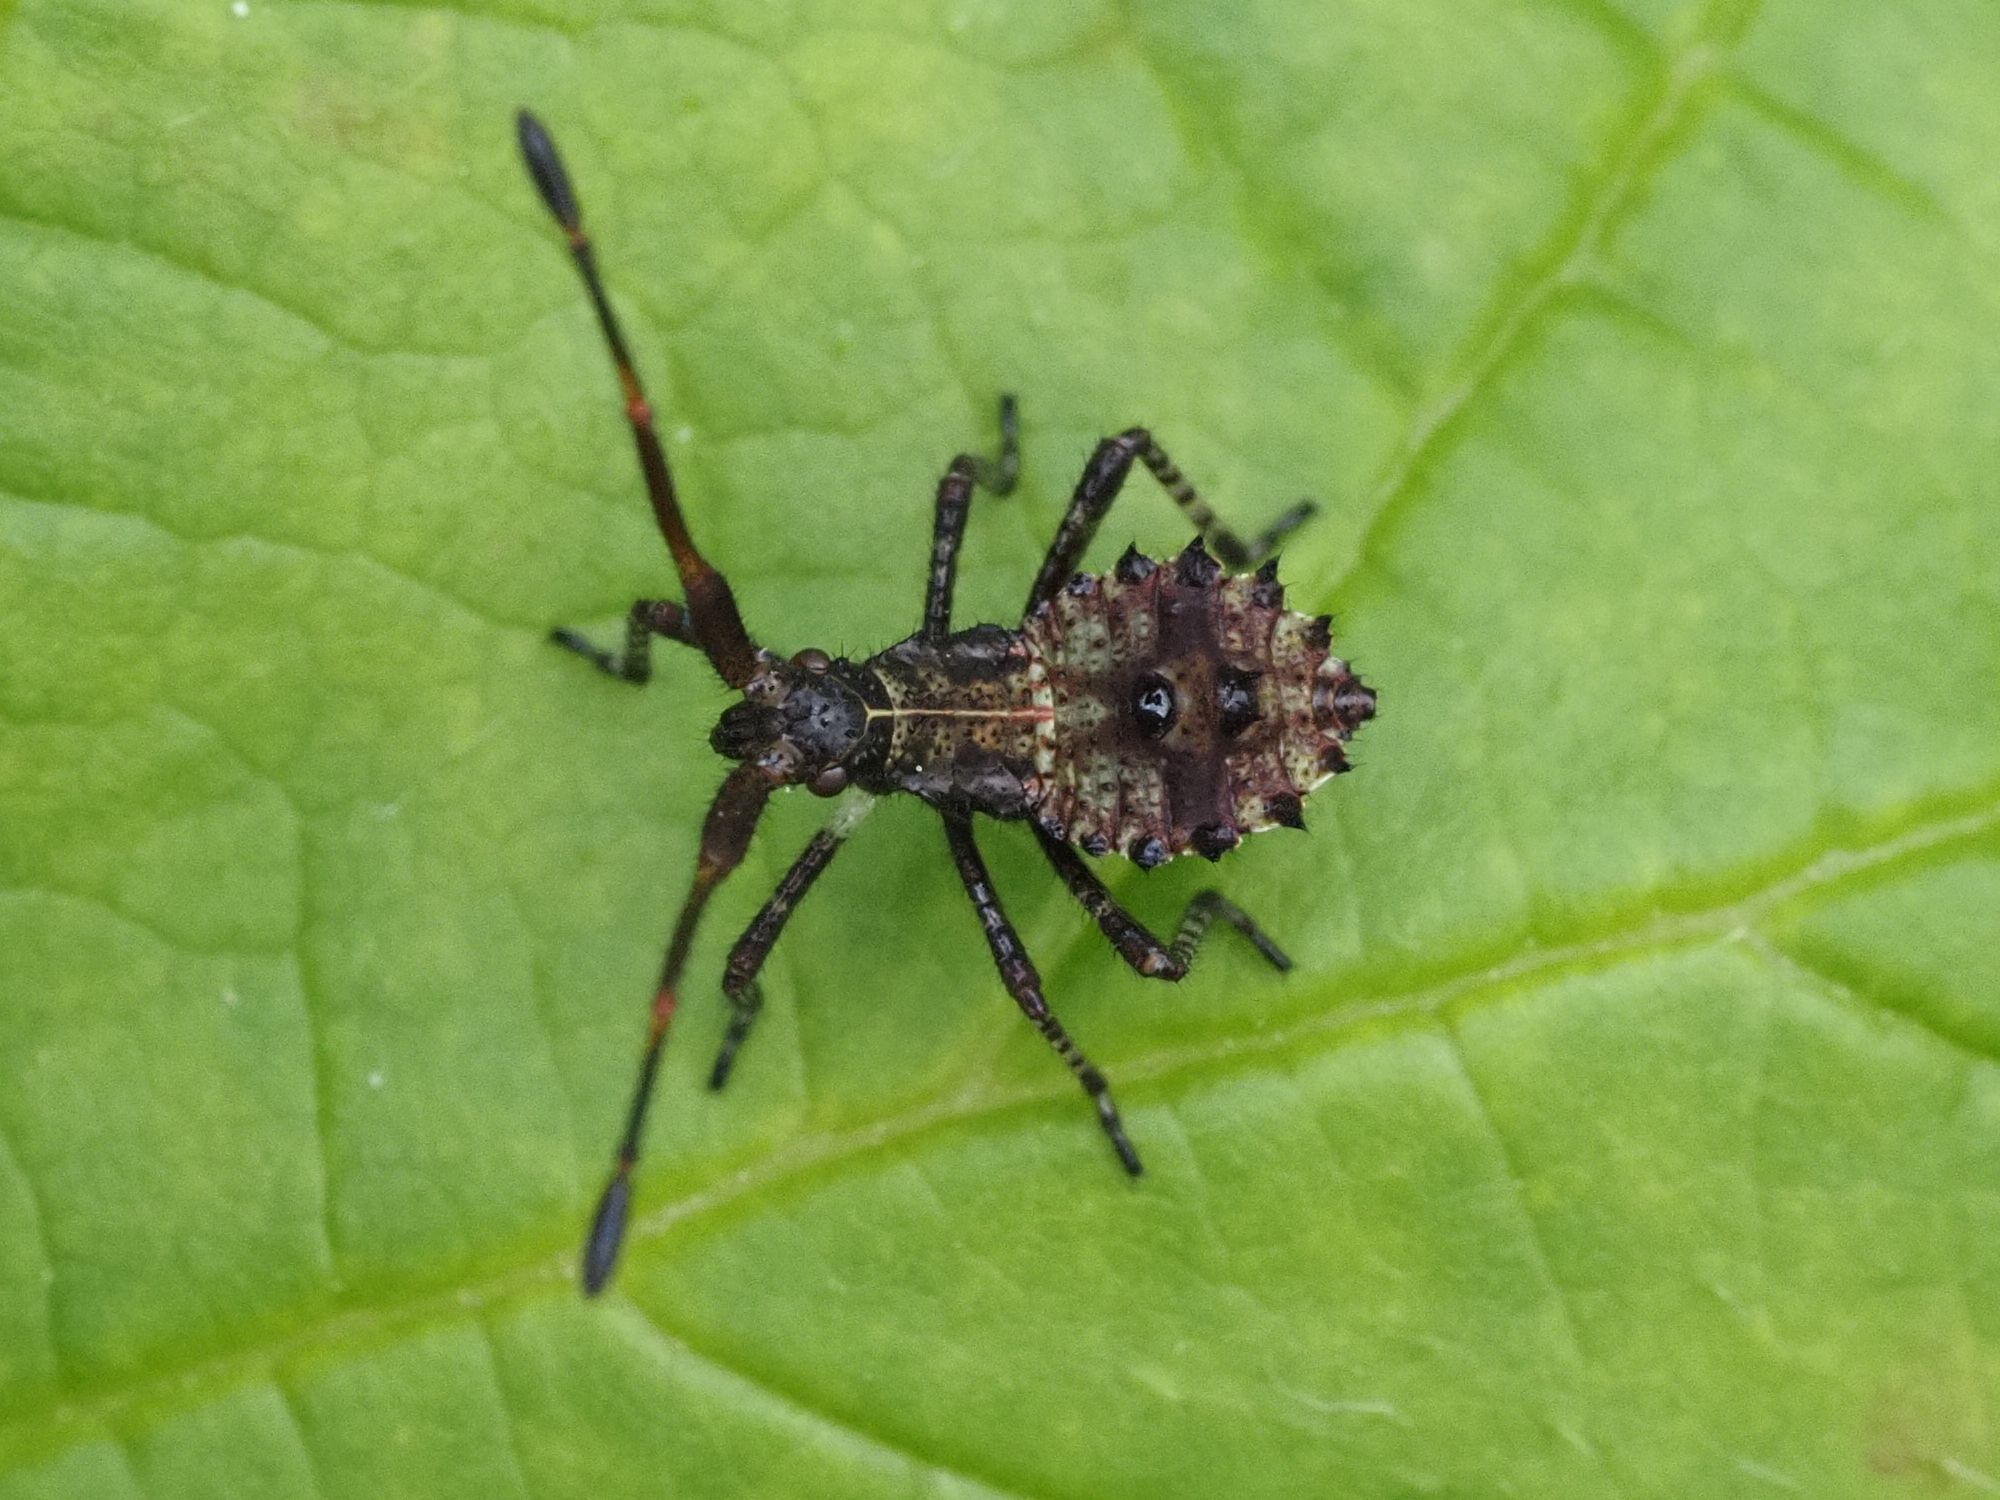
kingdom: Animalia
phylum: Arthropoda
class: Insecta
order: Hemiptera
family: Coreidae
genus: Coreus
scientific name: Coreus marginatus
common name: Dock bug
